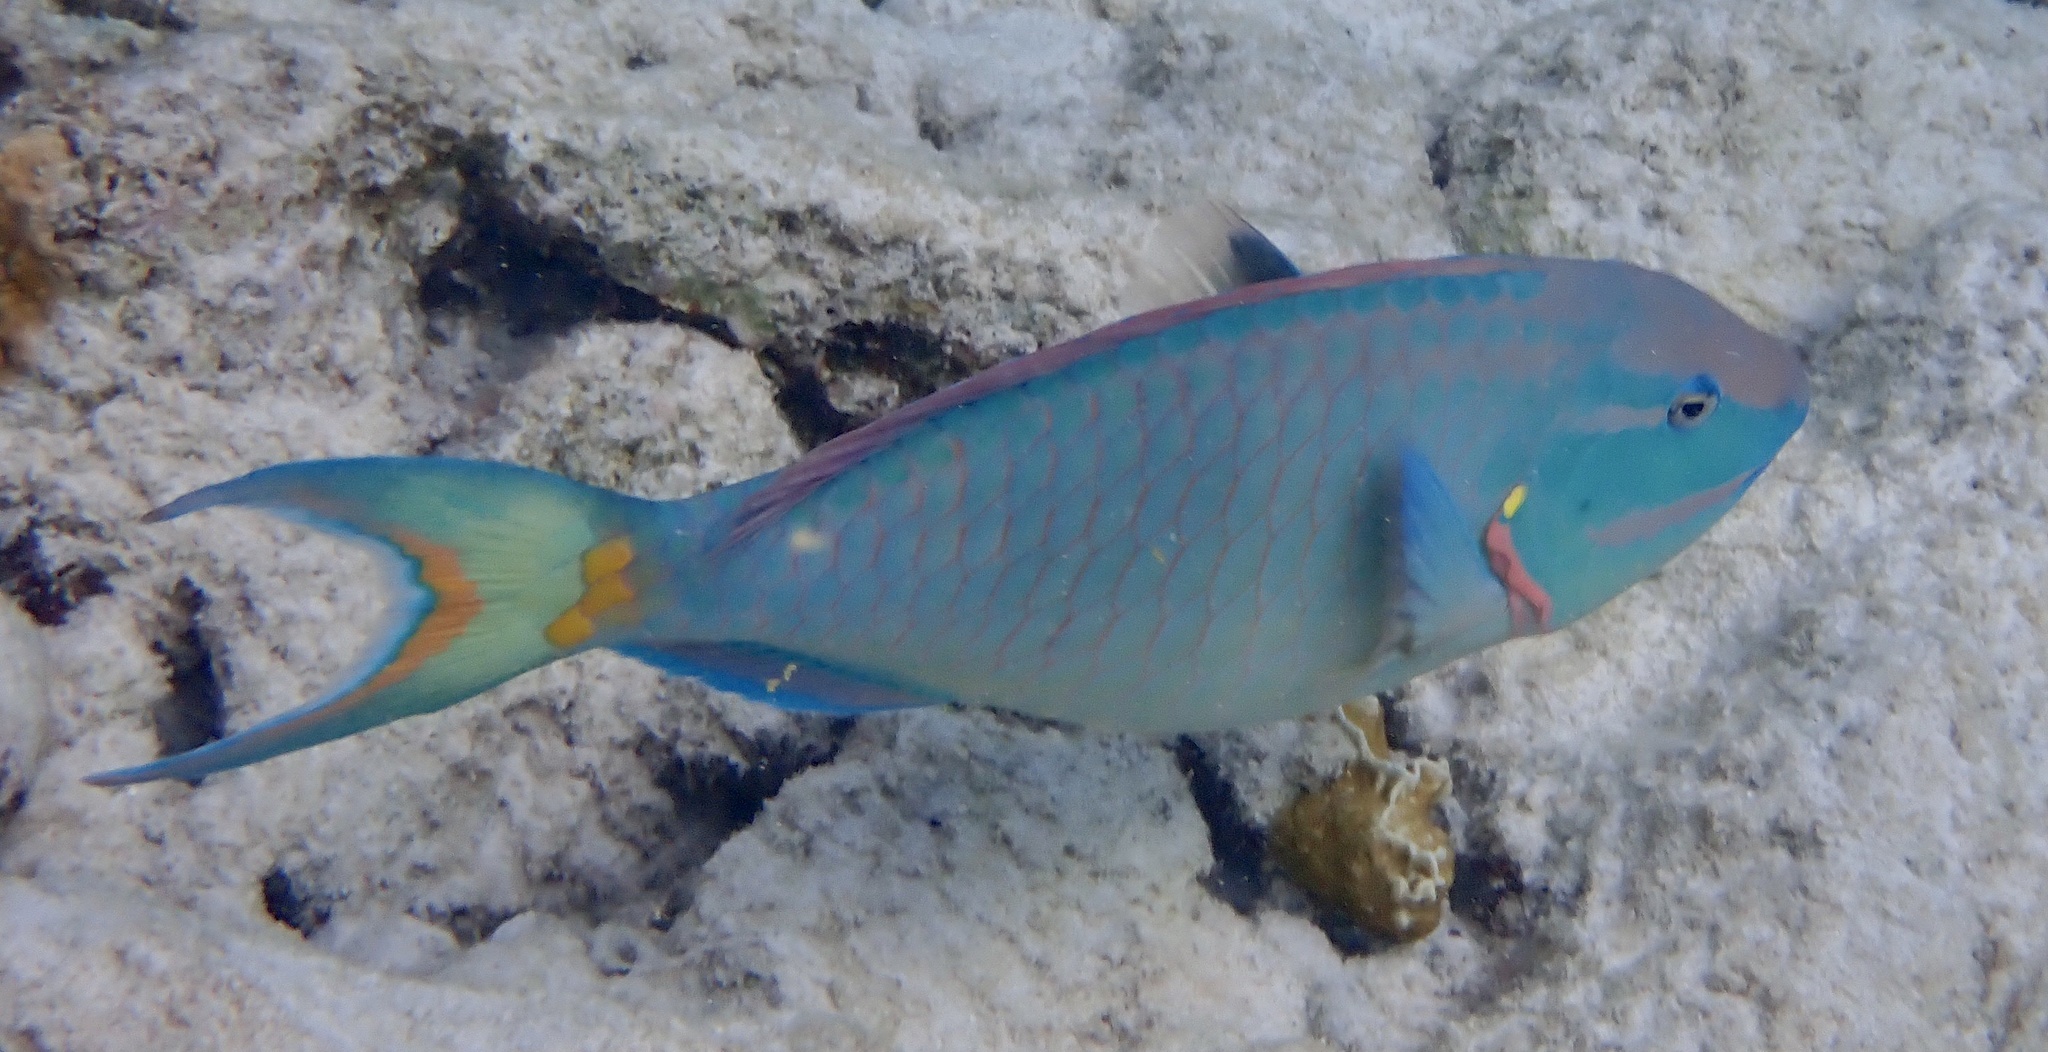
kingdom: Animalia
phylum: Chordata
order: Perciformes
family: Scaridae
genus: Sparisoma
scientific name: Sparisoma viride
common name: Stoplight parrotfish
